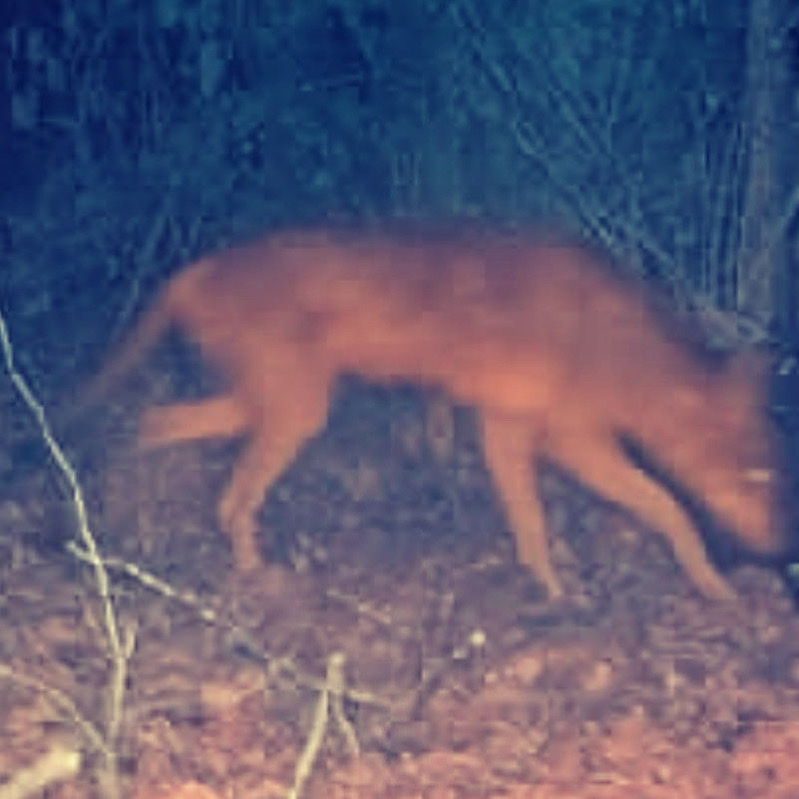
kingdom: Animalia
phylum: Chordata
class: Mammalia
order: Carnivora
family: Canidae
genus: Canis
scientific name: Canis latrans
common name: Coyote
